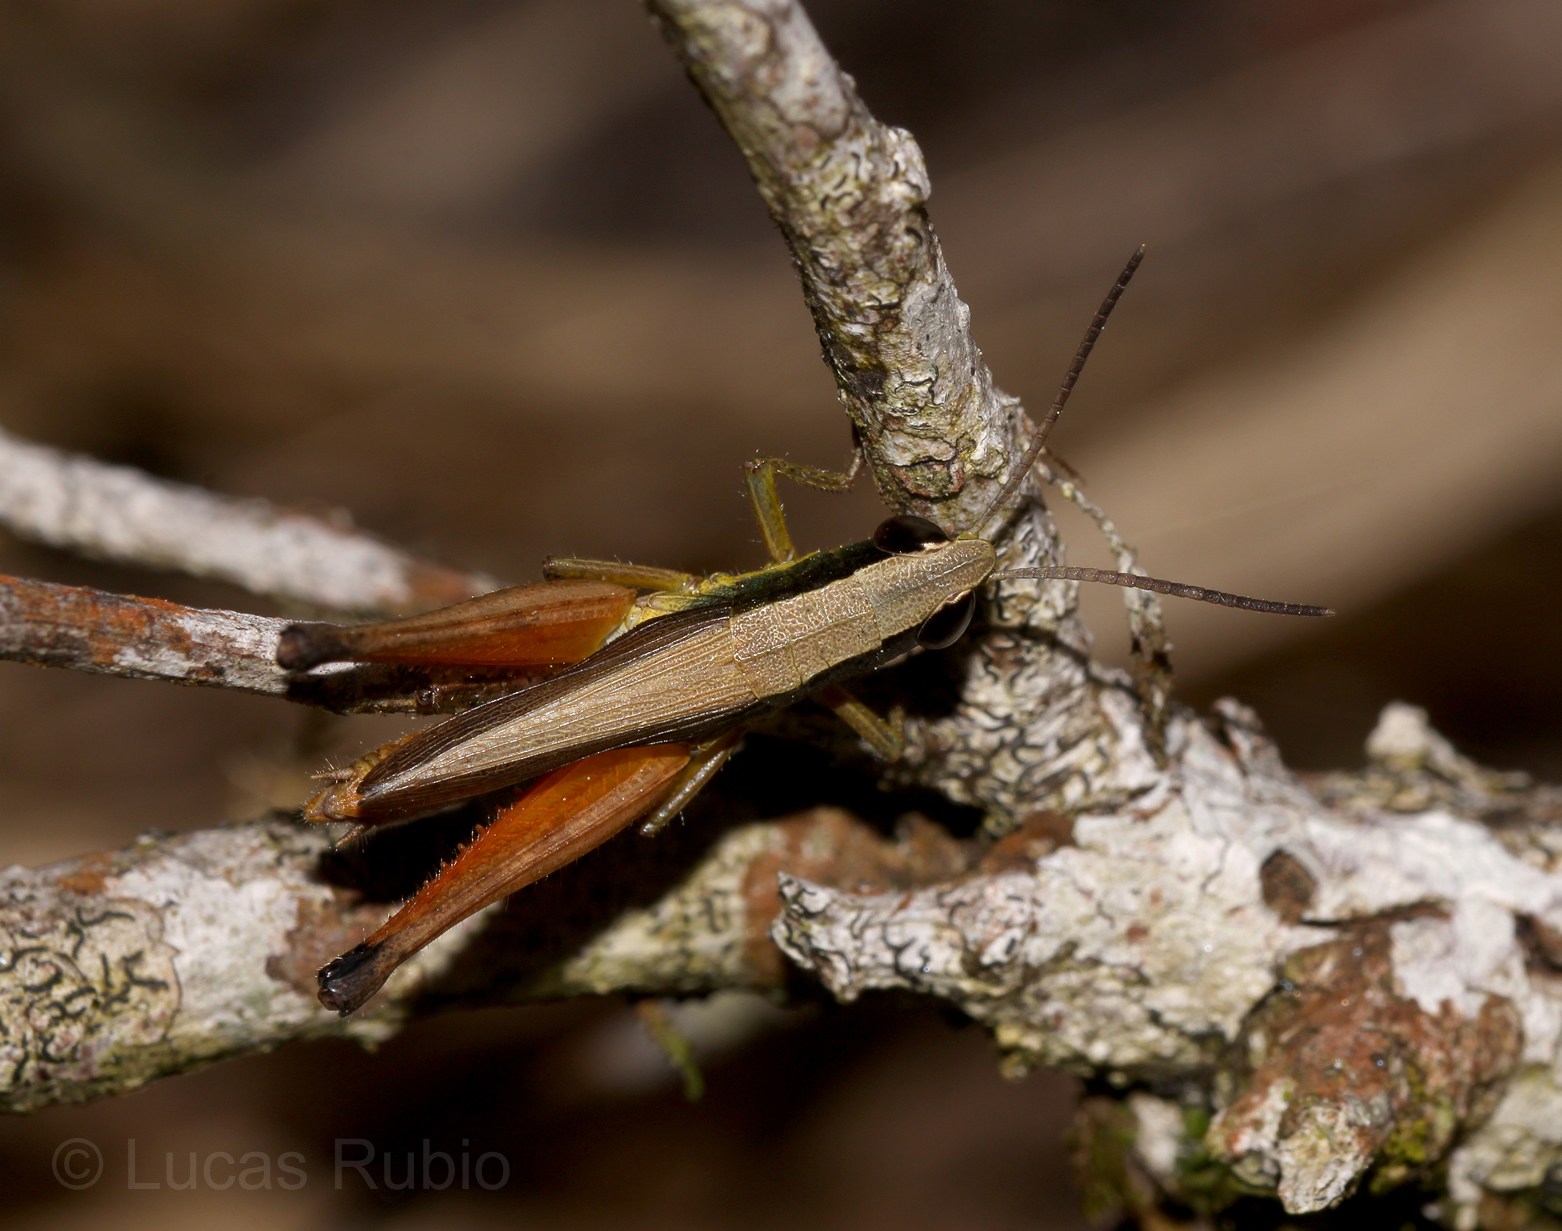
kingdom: Animalia
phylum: Arthropoda
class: Insecta
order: Orthoptera
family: Acrididae
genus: Amblytropidia
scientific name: Amblytropidia sola
